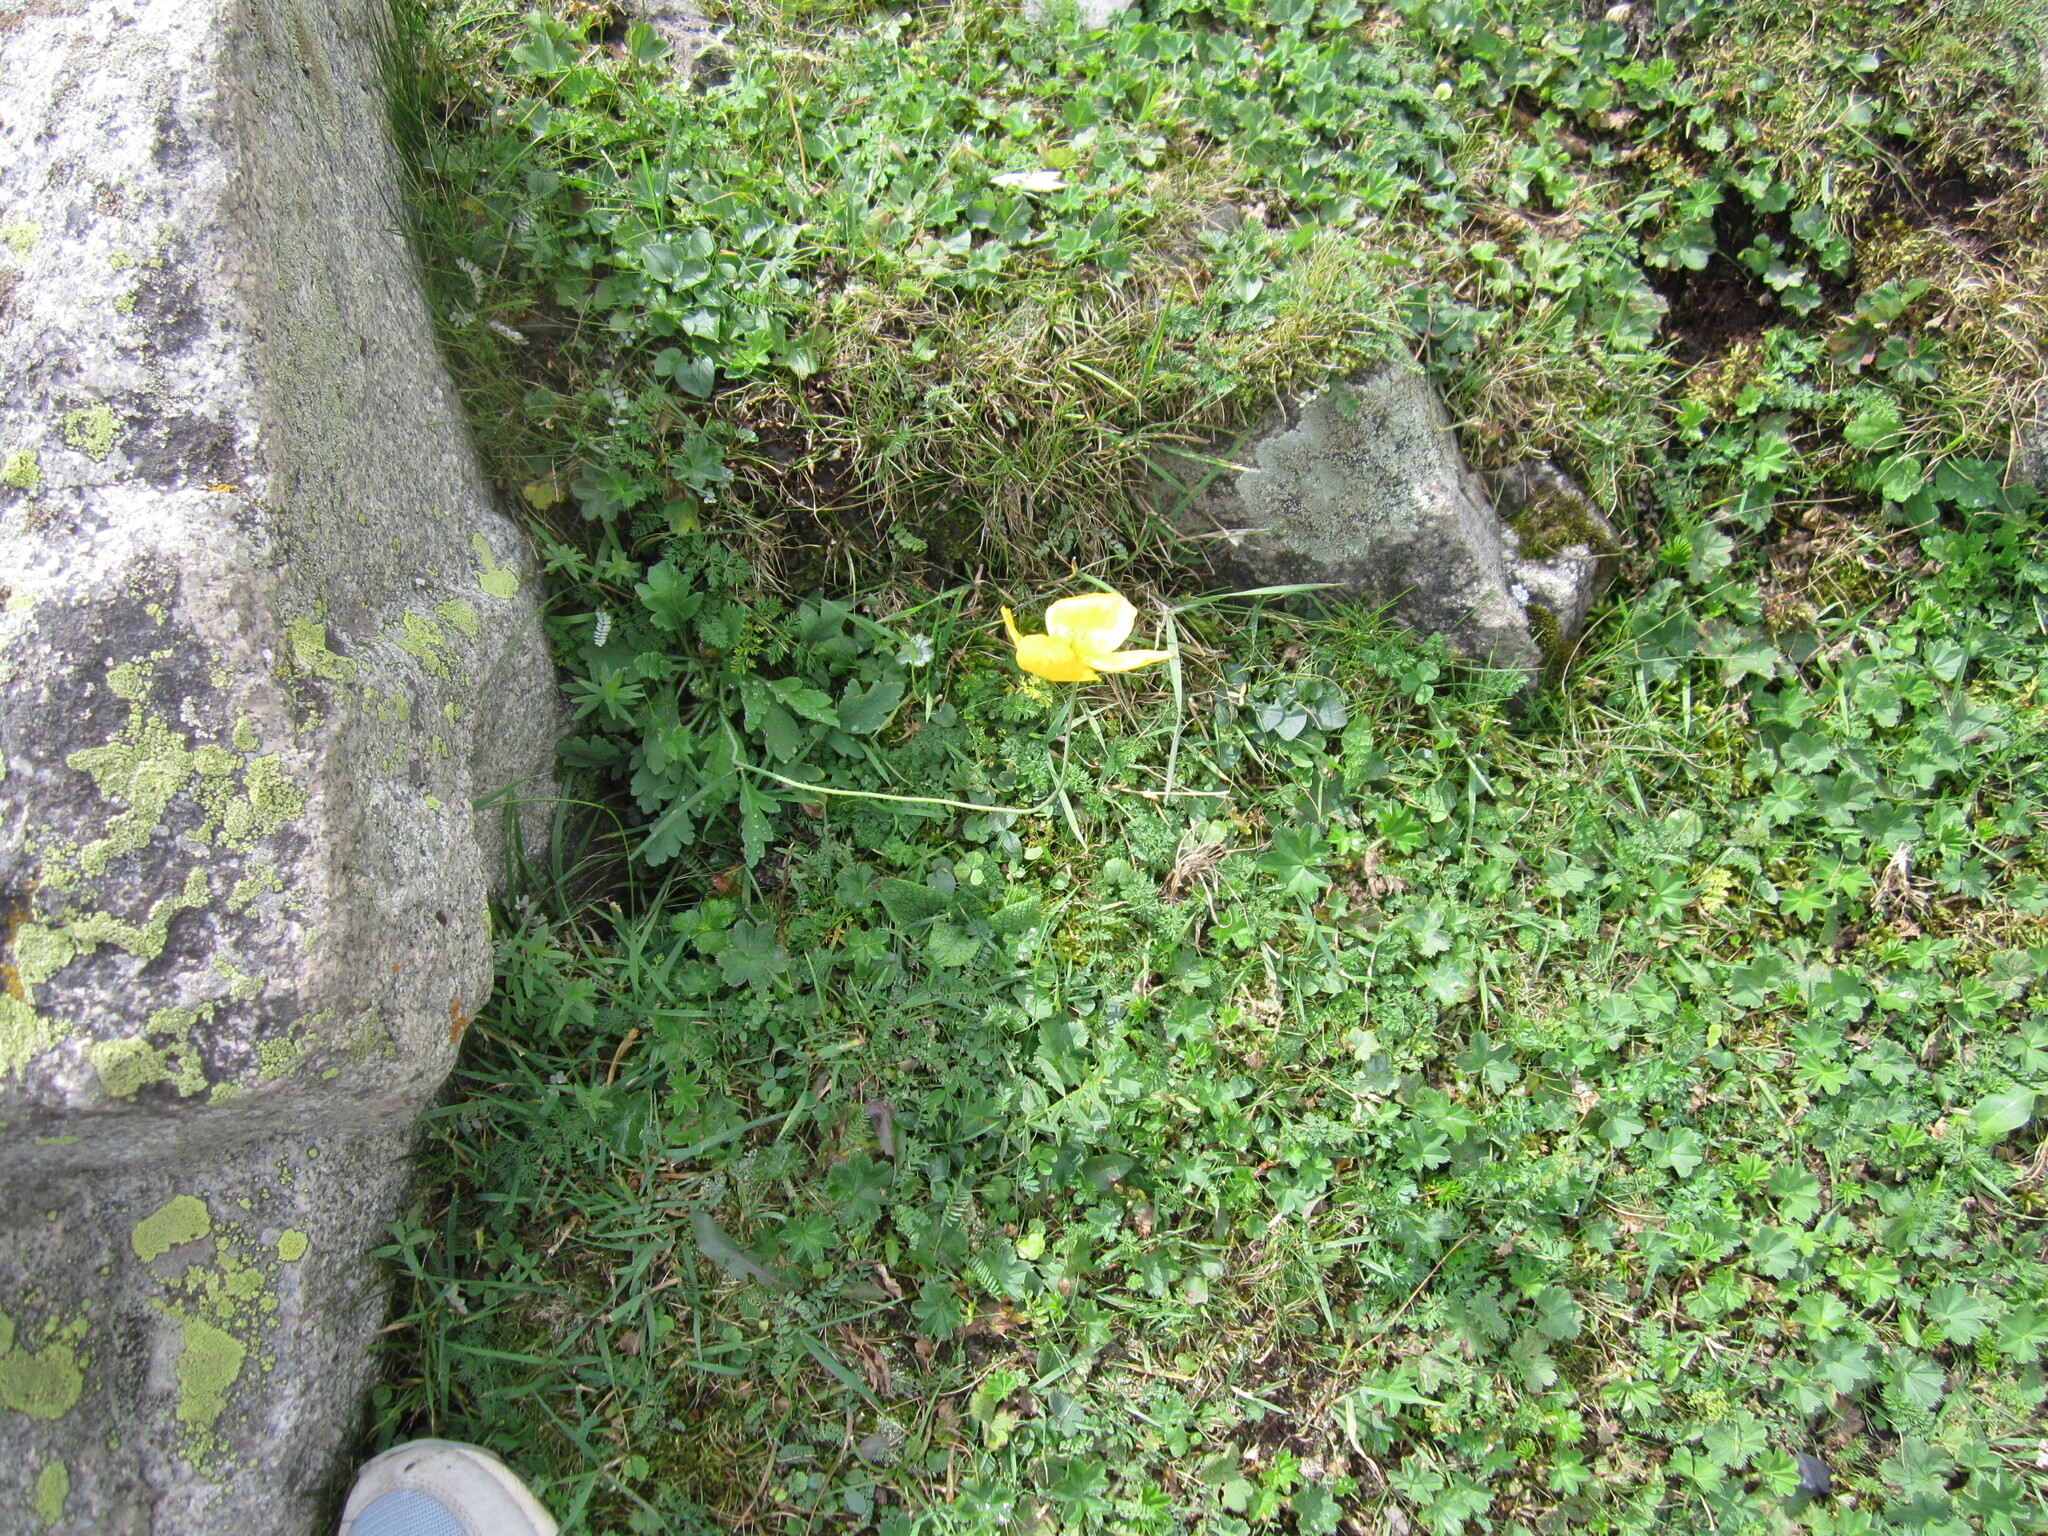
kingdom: Plantae
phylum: Tracheophyta
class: Magnoliopsida
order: Ranunculales
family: Papaveraceae
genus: Oreomecon
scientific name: Oreomecon
